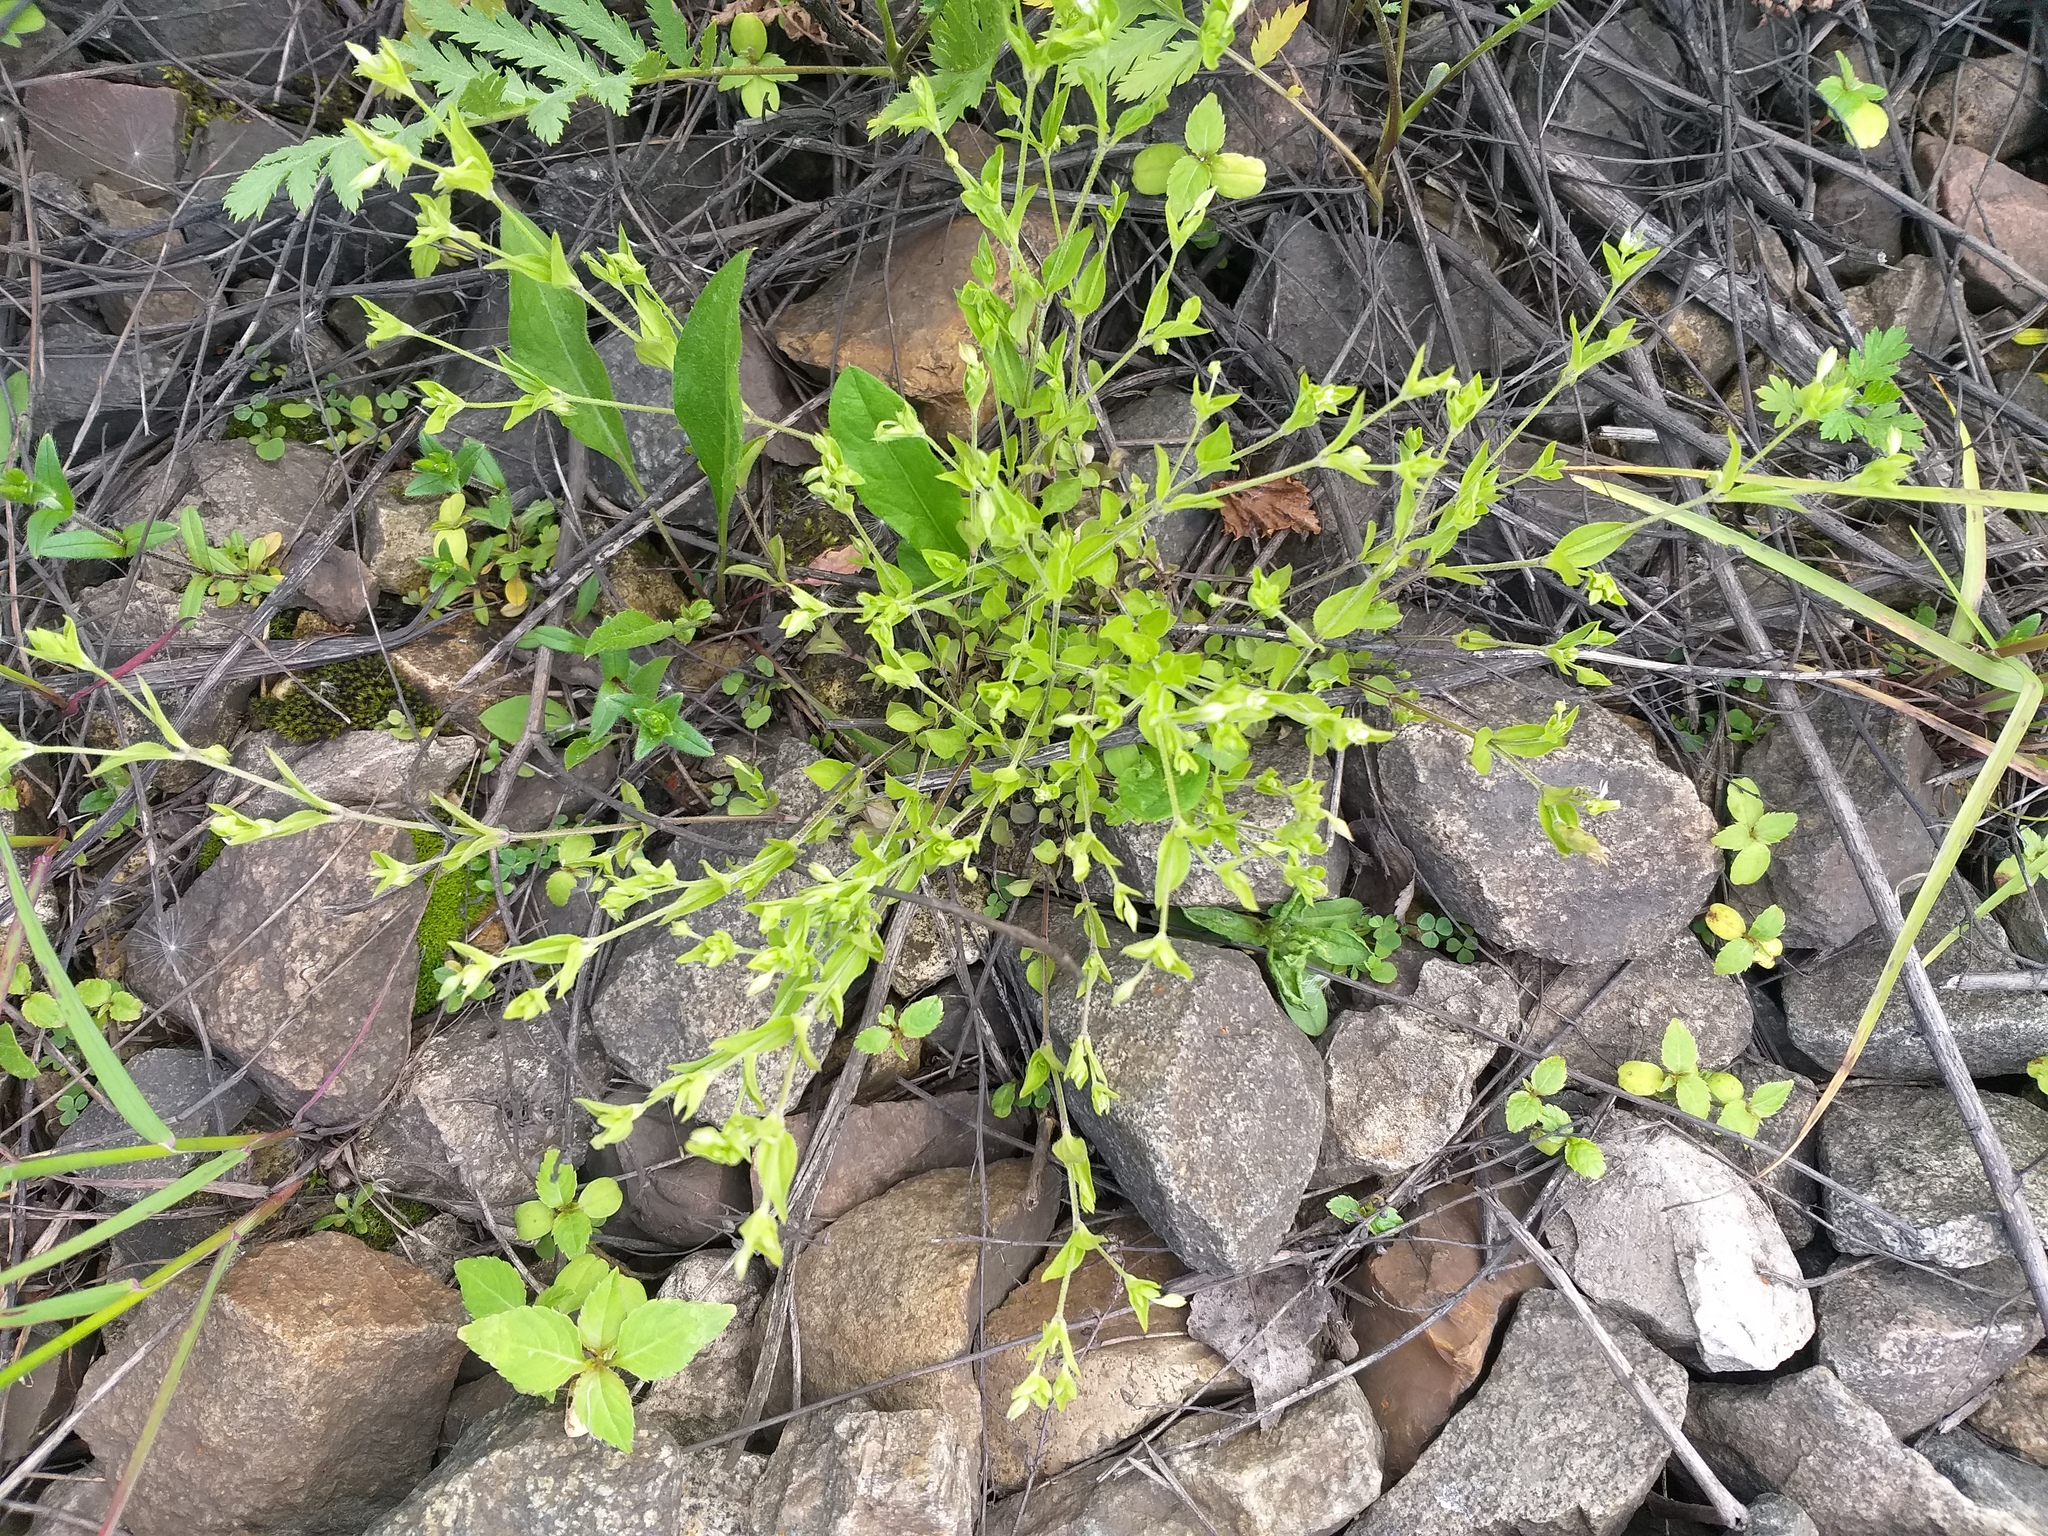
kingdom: Plantae
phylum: Tracheophyta
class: Magnoliopsida
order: Caryophyllales
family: Caryophyllaceae
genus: Moehringia
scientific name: Moehringia trinervia
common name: Three-nerved sandwort
